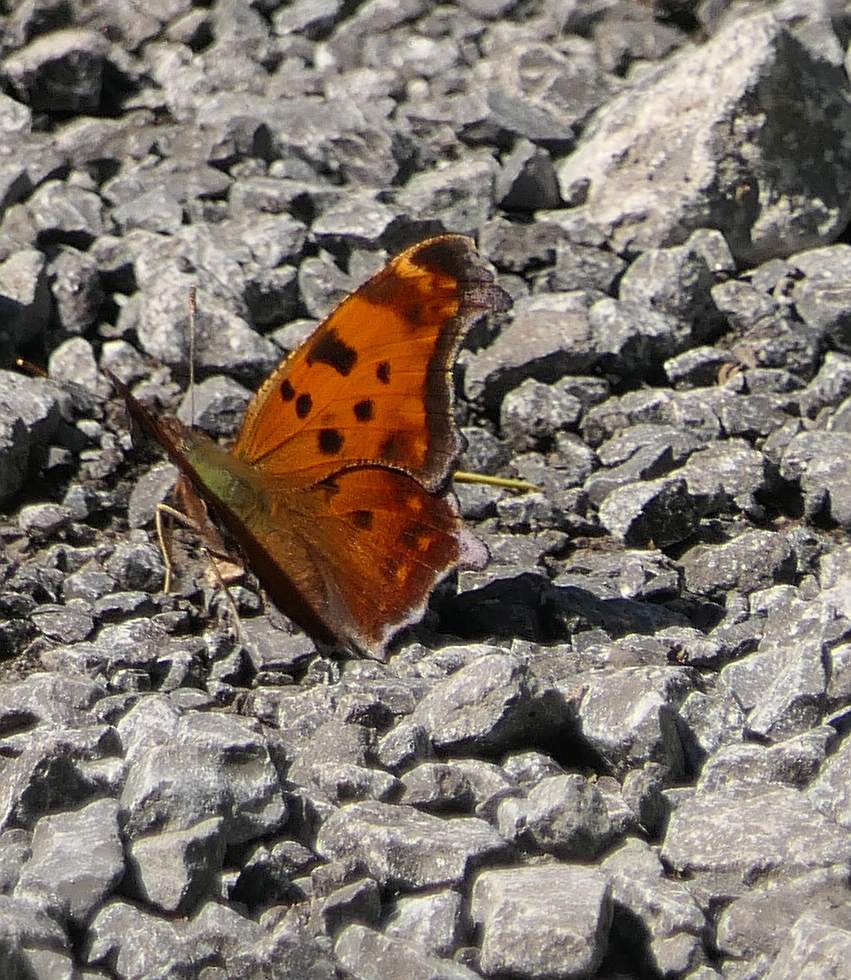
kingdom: Animalia
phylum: Arthropoda
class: Insecta
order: Lepidoptera
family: Nymphalidae
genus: Polygonia
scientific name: Polygonia comma
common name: Eastern comma
